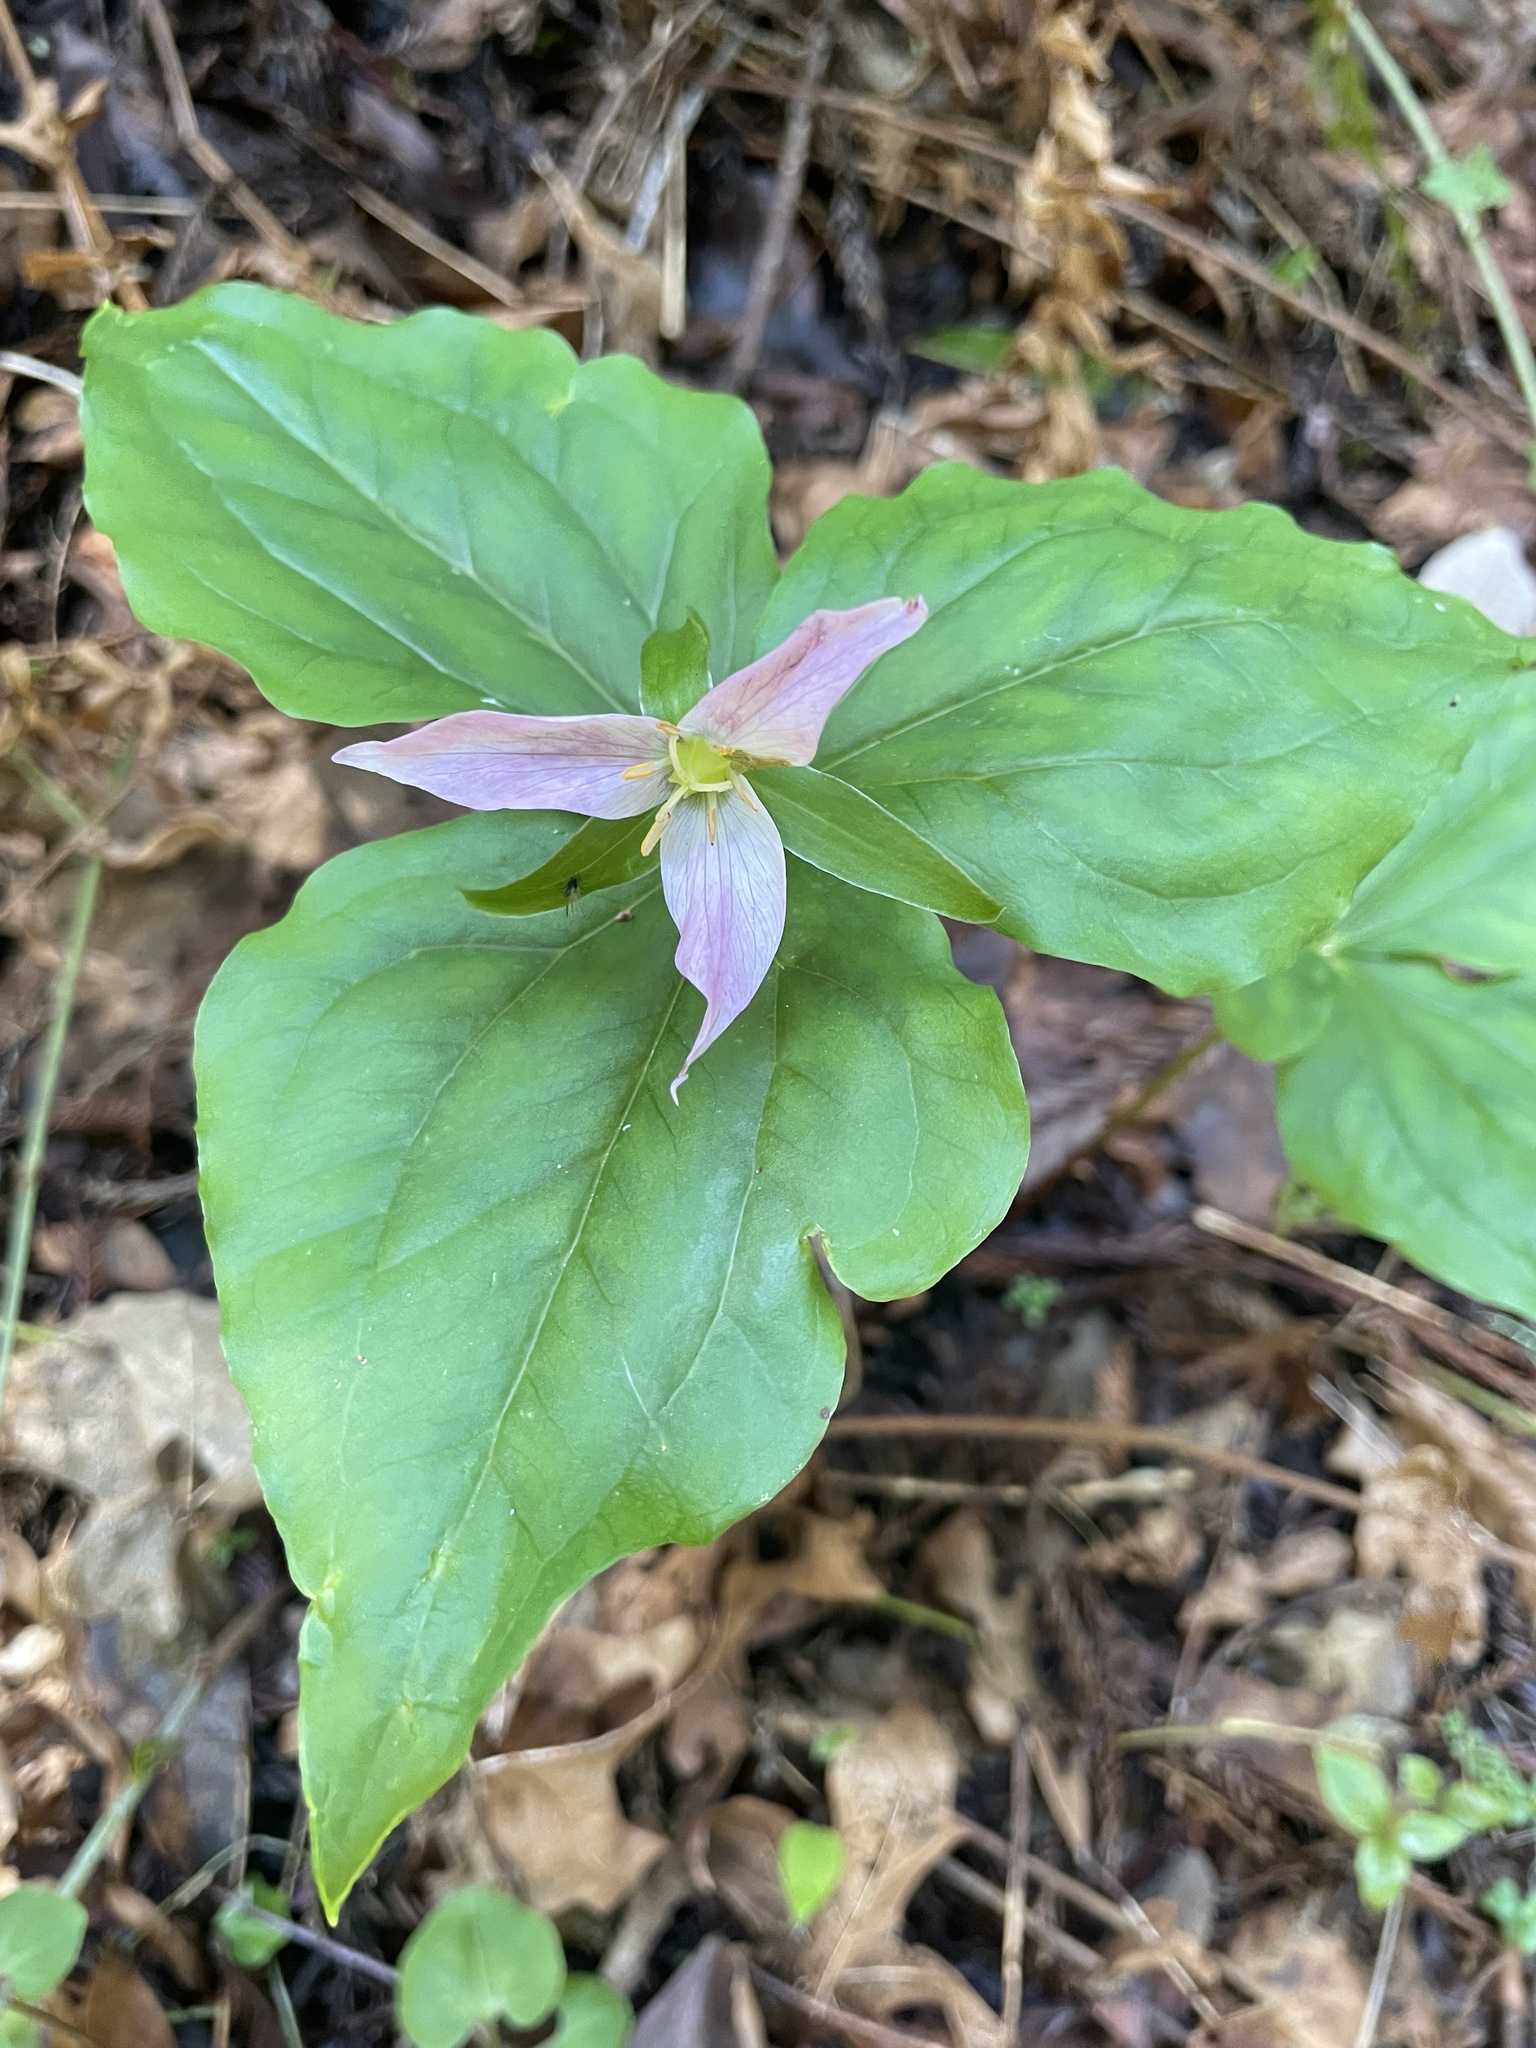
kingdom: Plantae
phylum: Tracheophyta
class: Liliopsida
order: Liliales
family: Melanthiaceae
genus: Trillium
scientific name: Trillium ovatum
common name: Pacific trillium
